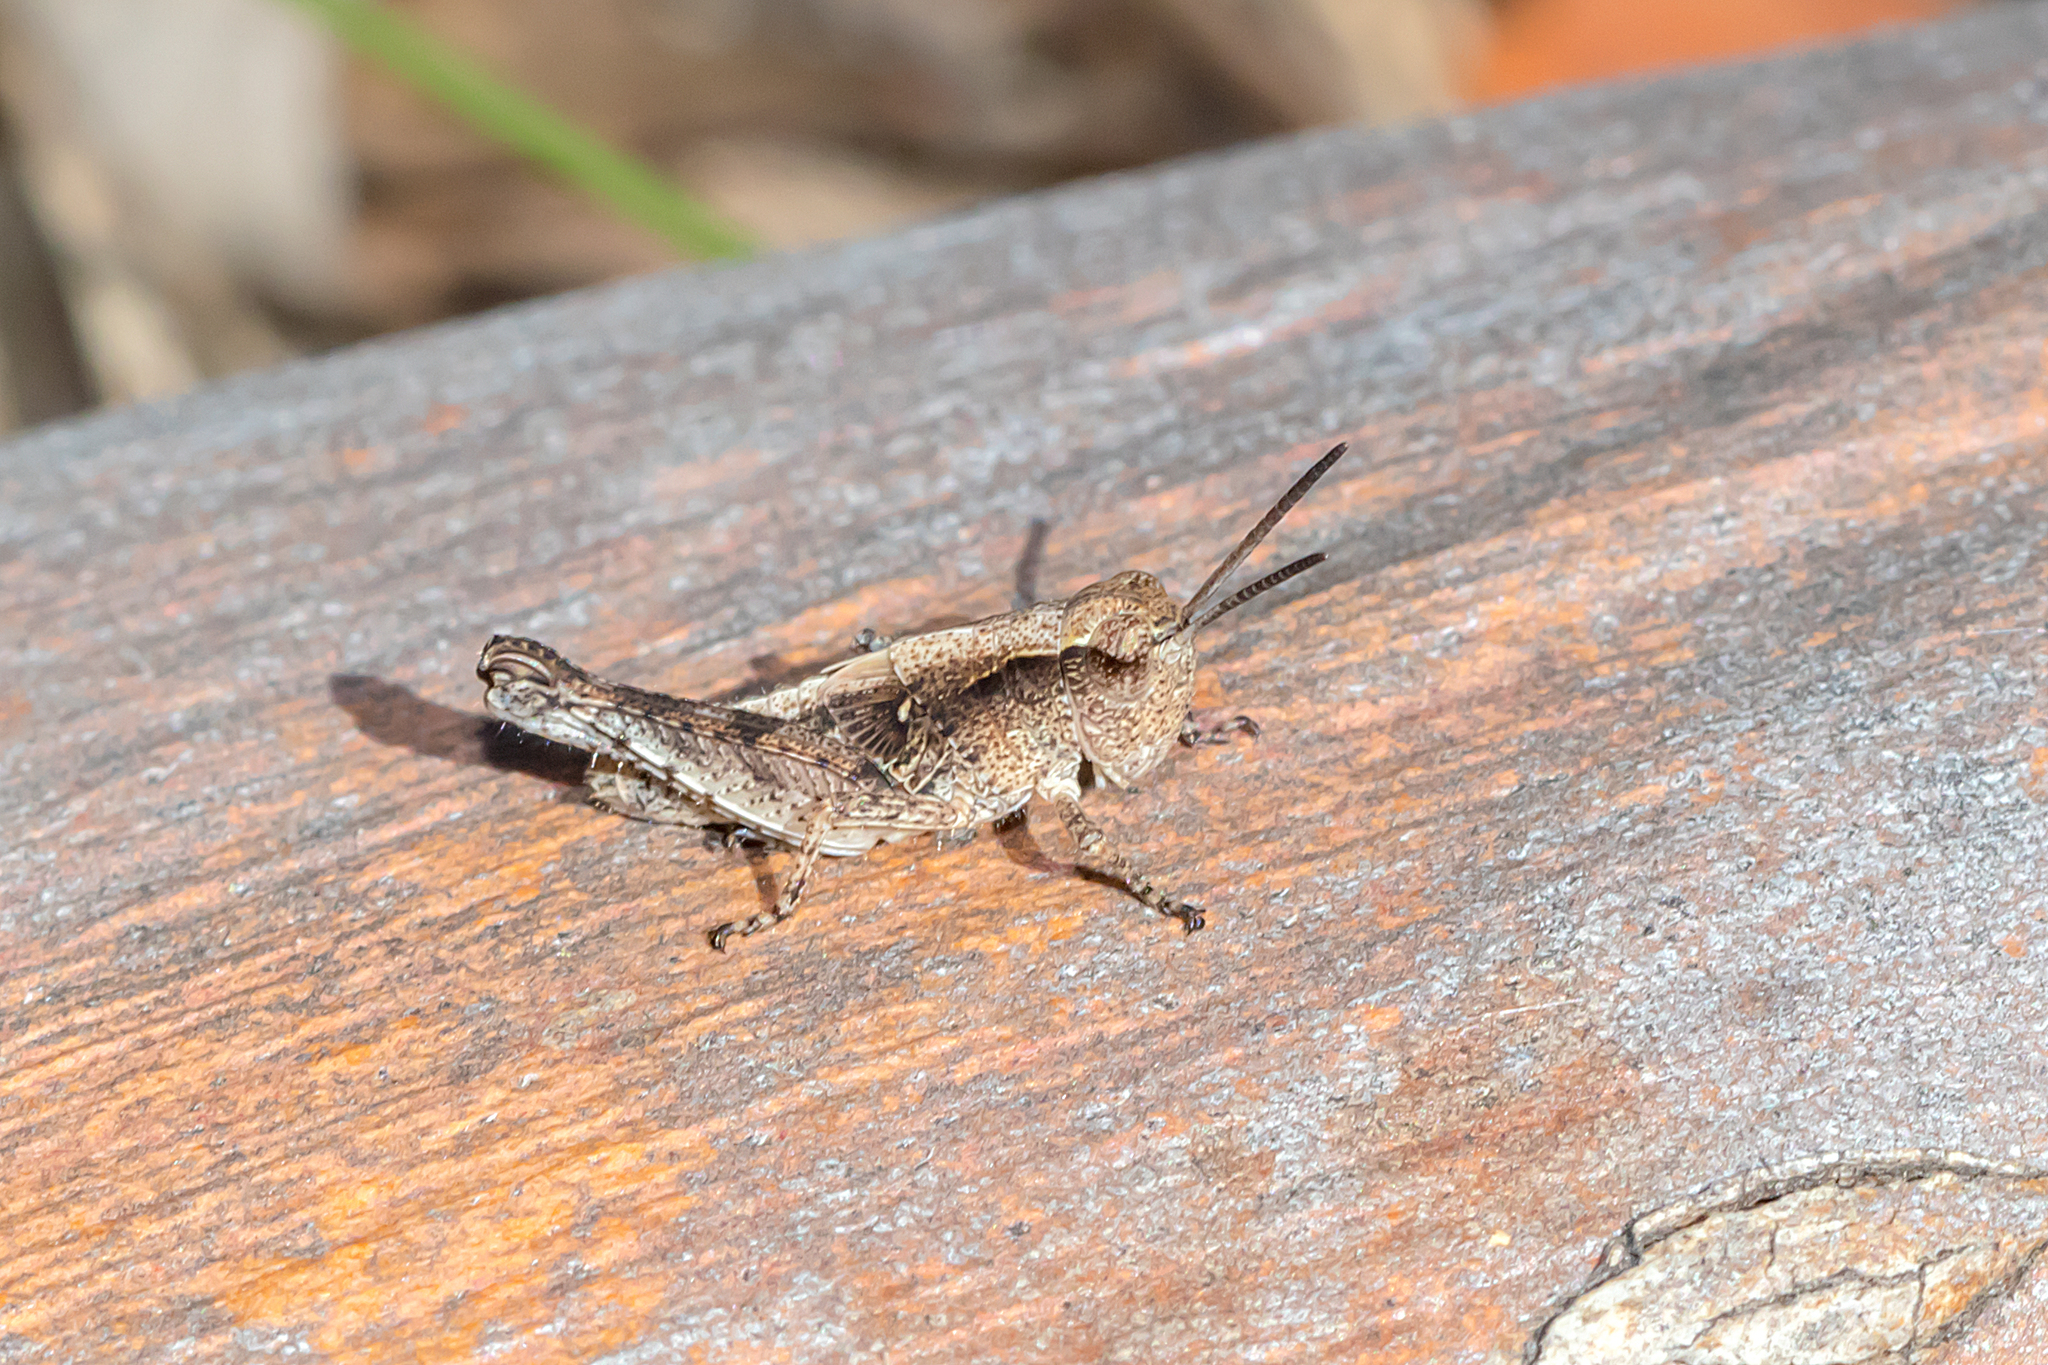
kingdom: Animalia
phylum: Arthropoda
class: Insecta
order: Orthoptera
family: Acrididae
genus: Phaulacridium
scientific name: Phaulacridium vittatum
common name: Wingless grasshopper
